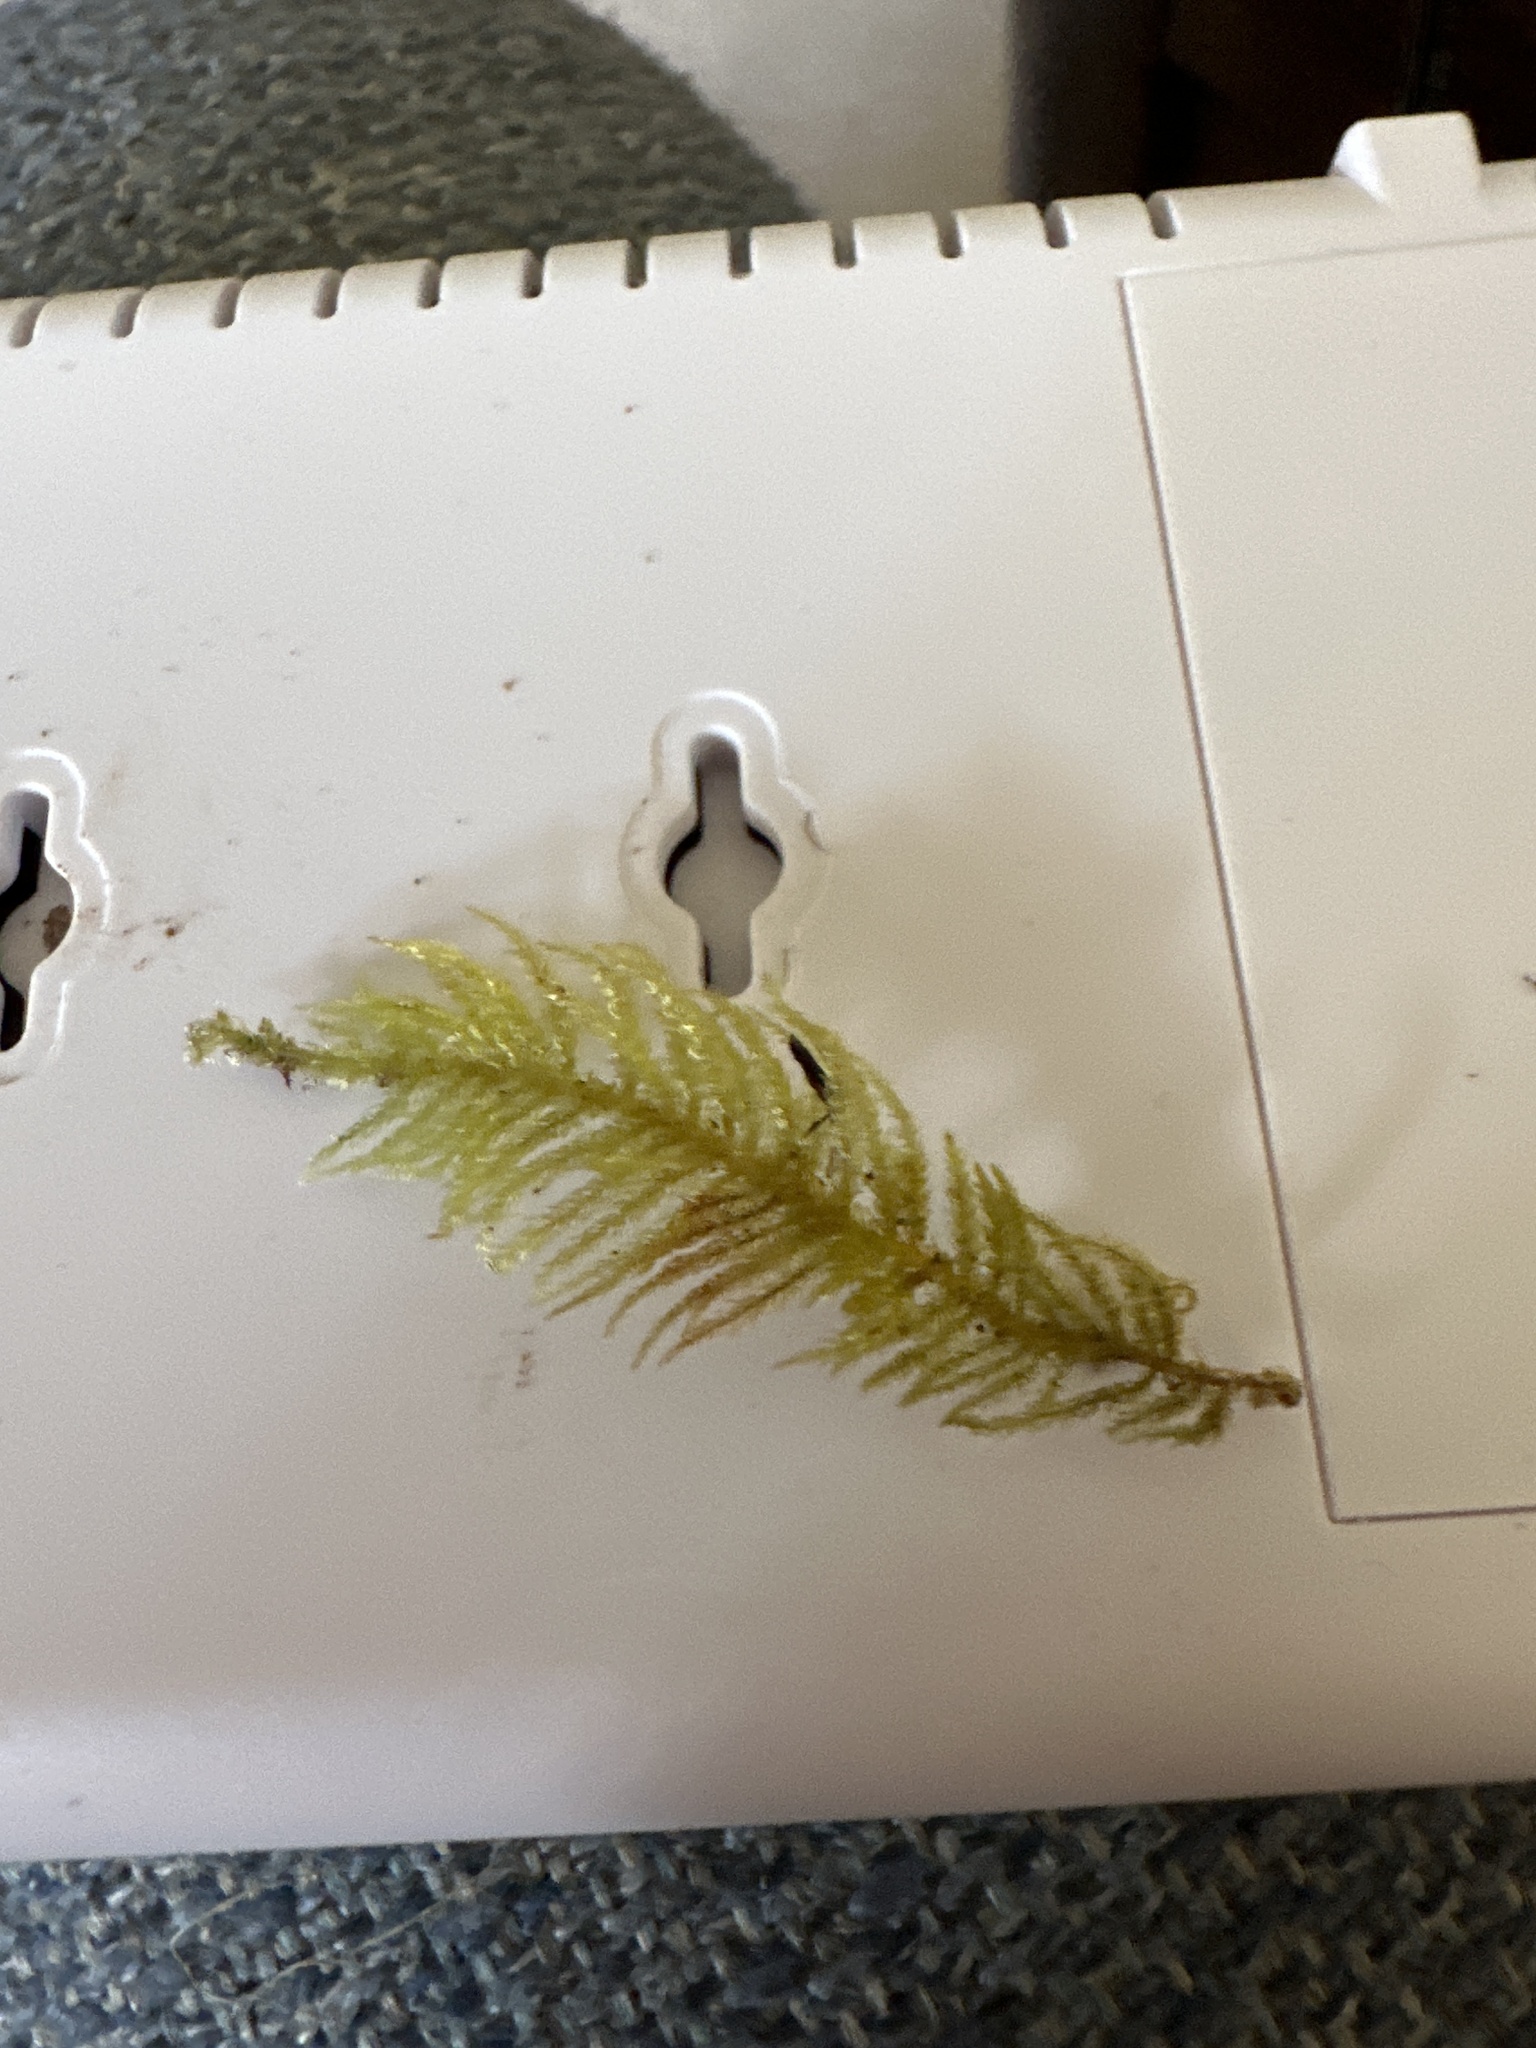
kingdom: Plantae
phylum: Bryophyta
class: Bryopsida
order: Hypnales
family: Brachytheciaceae
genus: Kindbergia
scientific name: Kindbergia oregana
